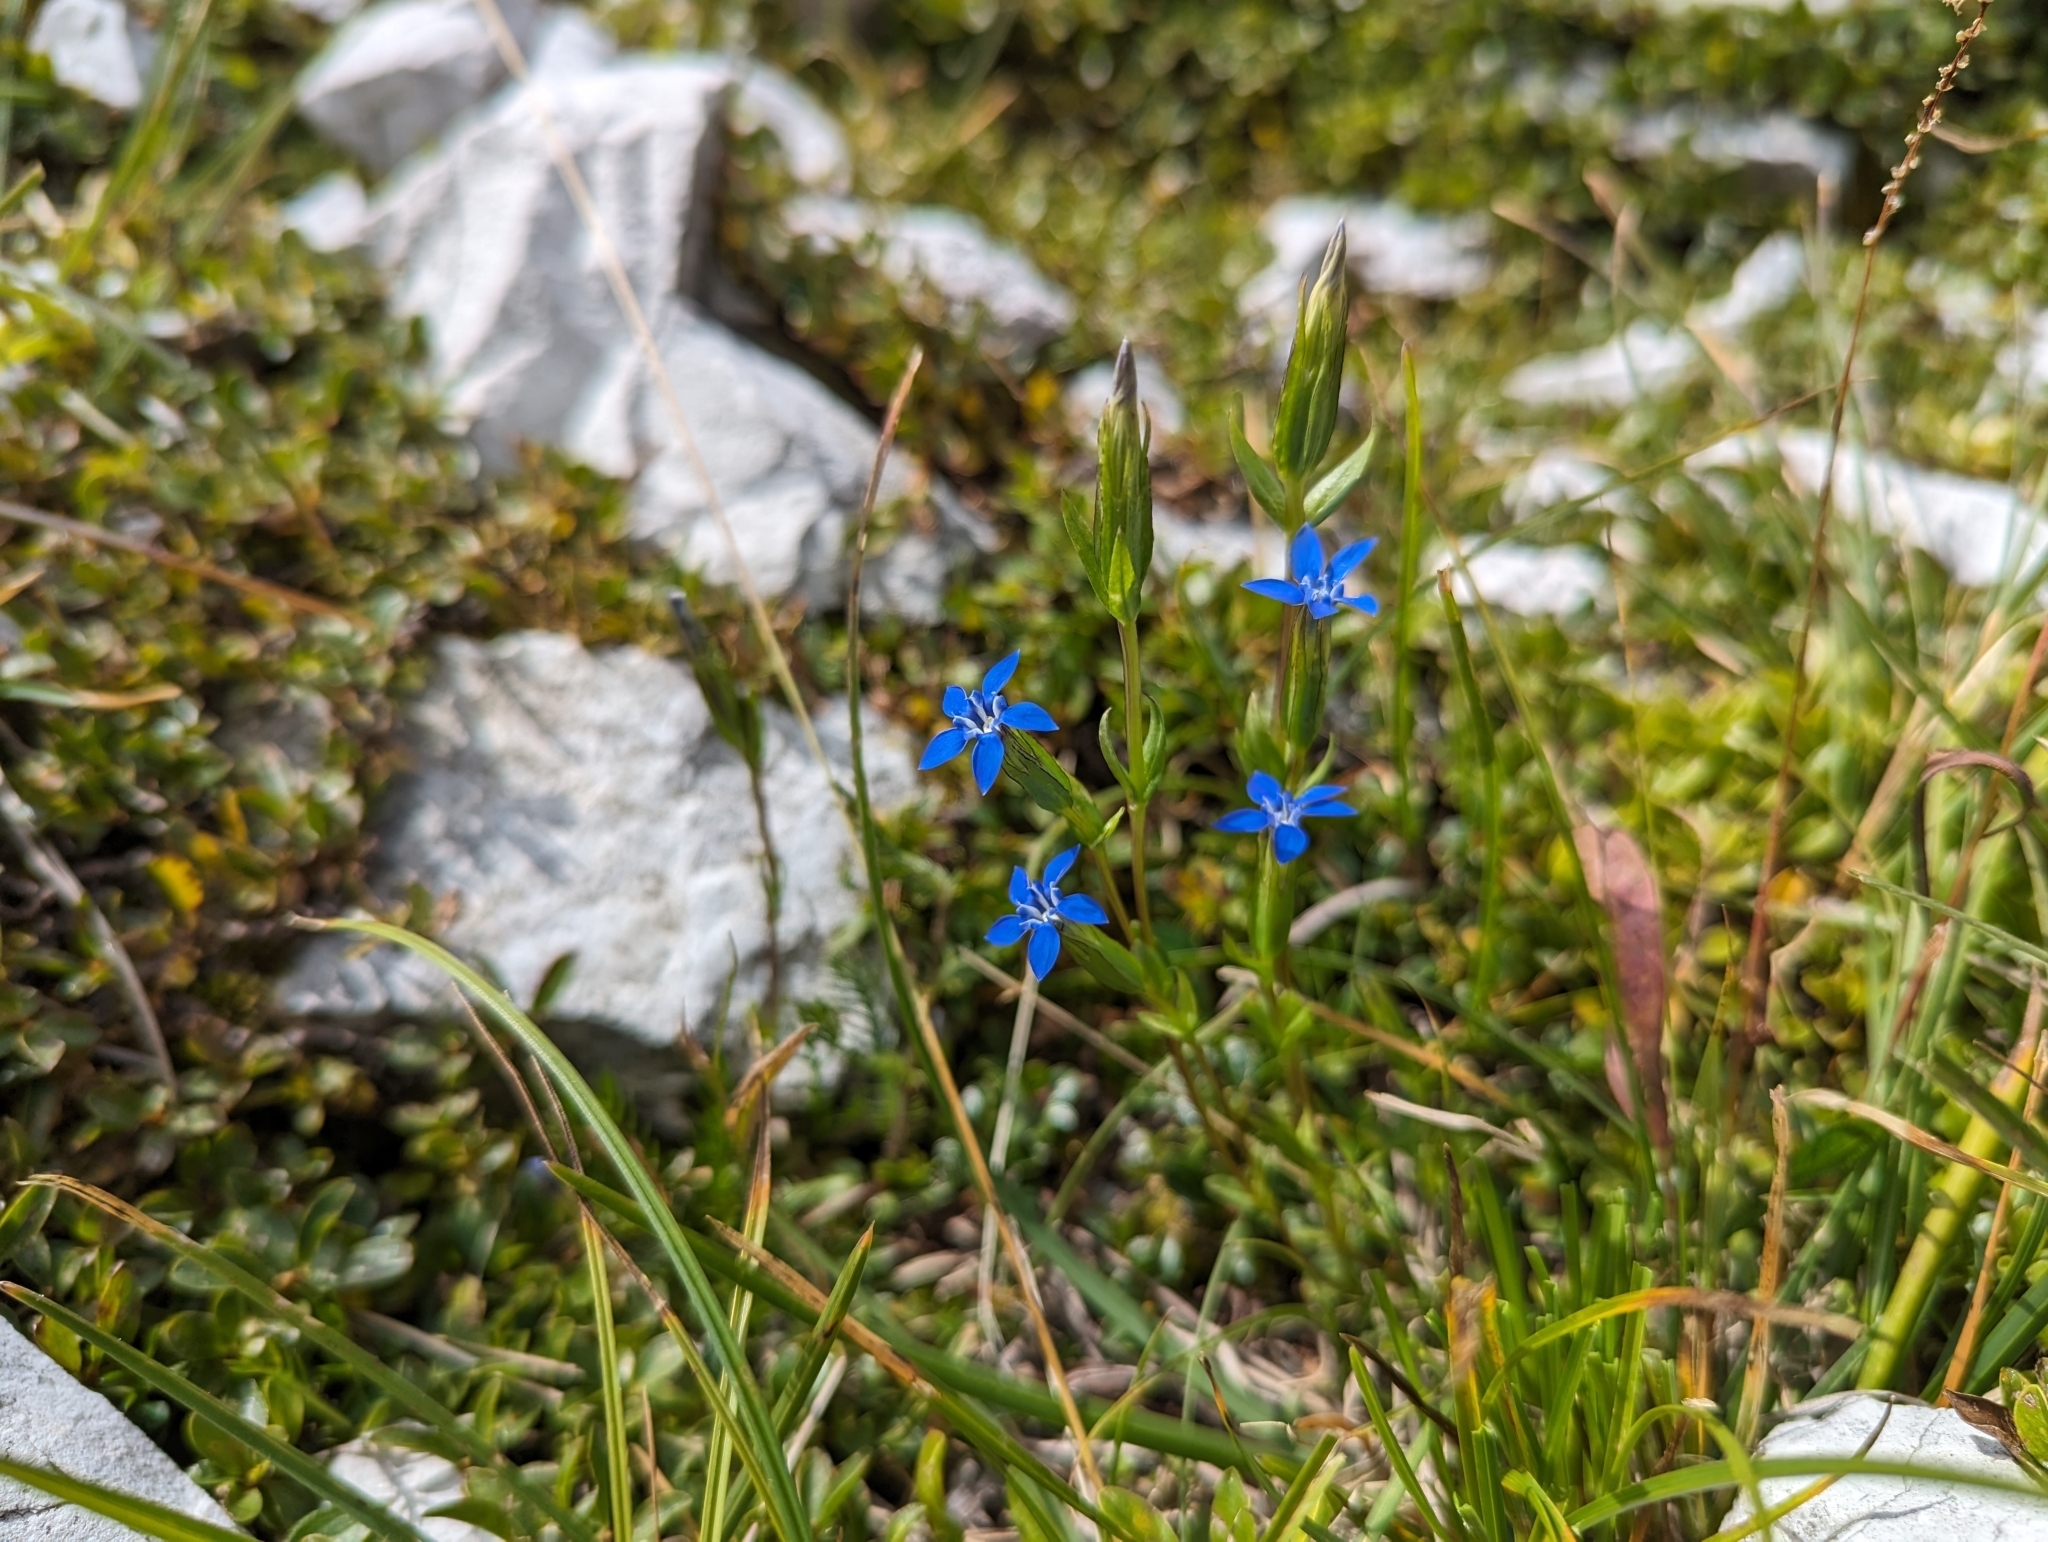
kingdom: Plantae
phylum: Tracheophyta
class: Magnoliopsida
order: Gentianales
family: Gentianaceae
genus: Gentiana
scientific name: Gentiana nivalis
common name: Alpine gentian
